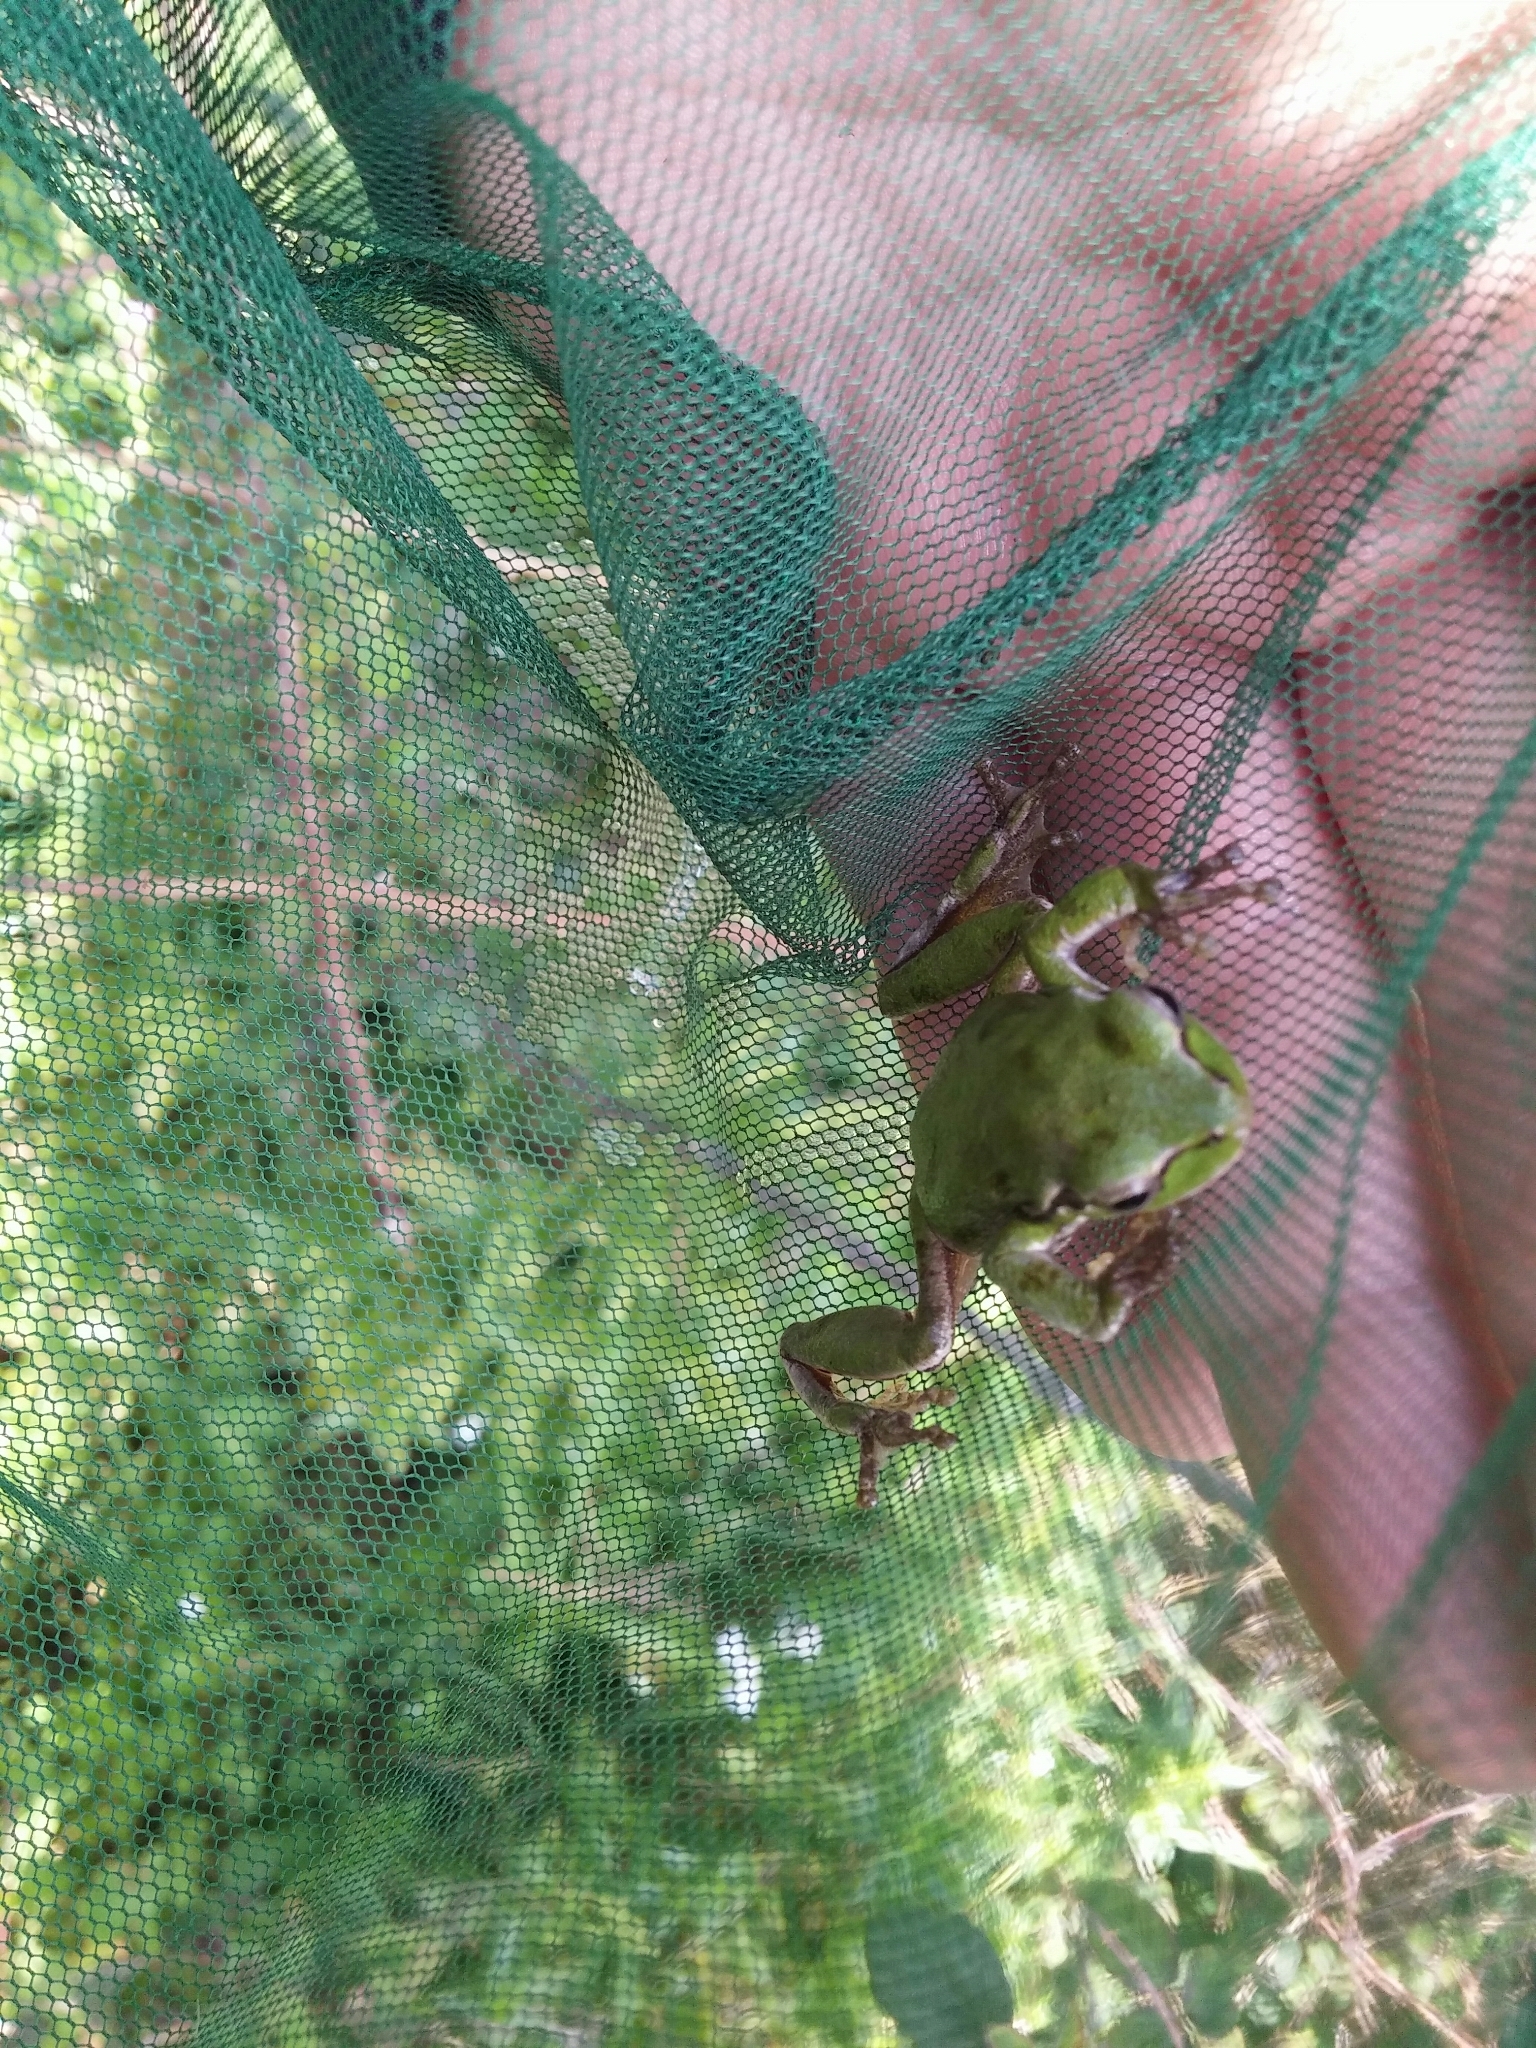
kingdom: Animalia
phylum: Chordata
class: Amphibia
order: Anura
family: Hylidae
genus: Hyla
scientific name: Hyla sarda
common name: Sardinian tree frog
